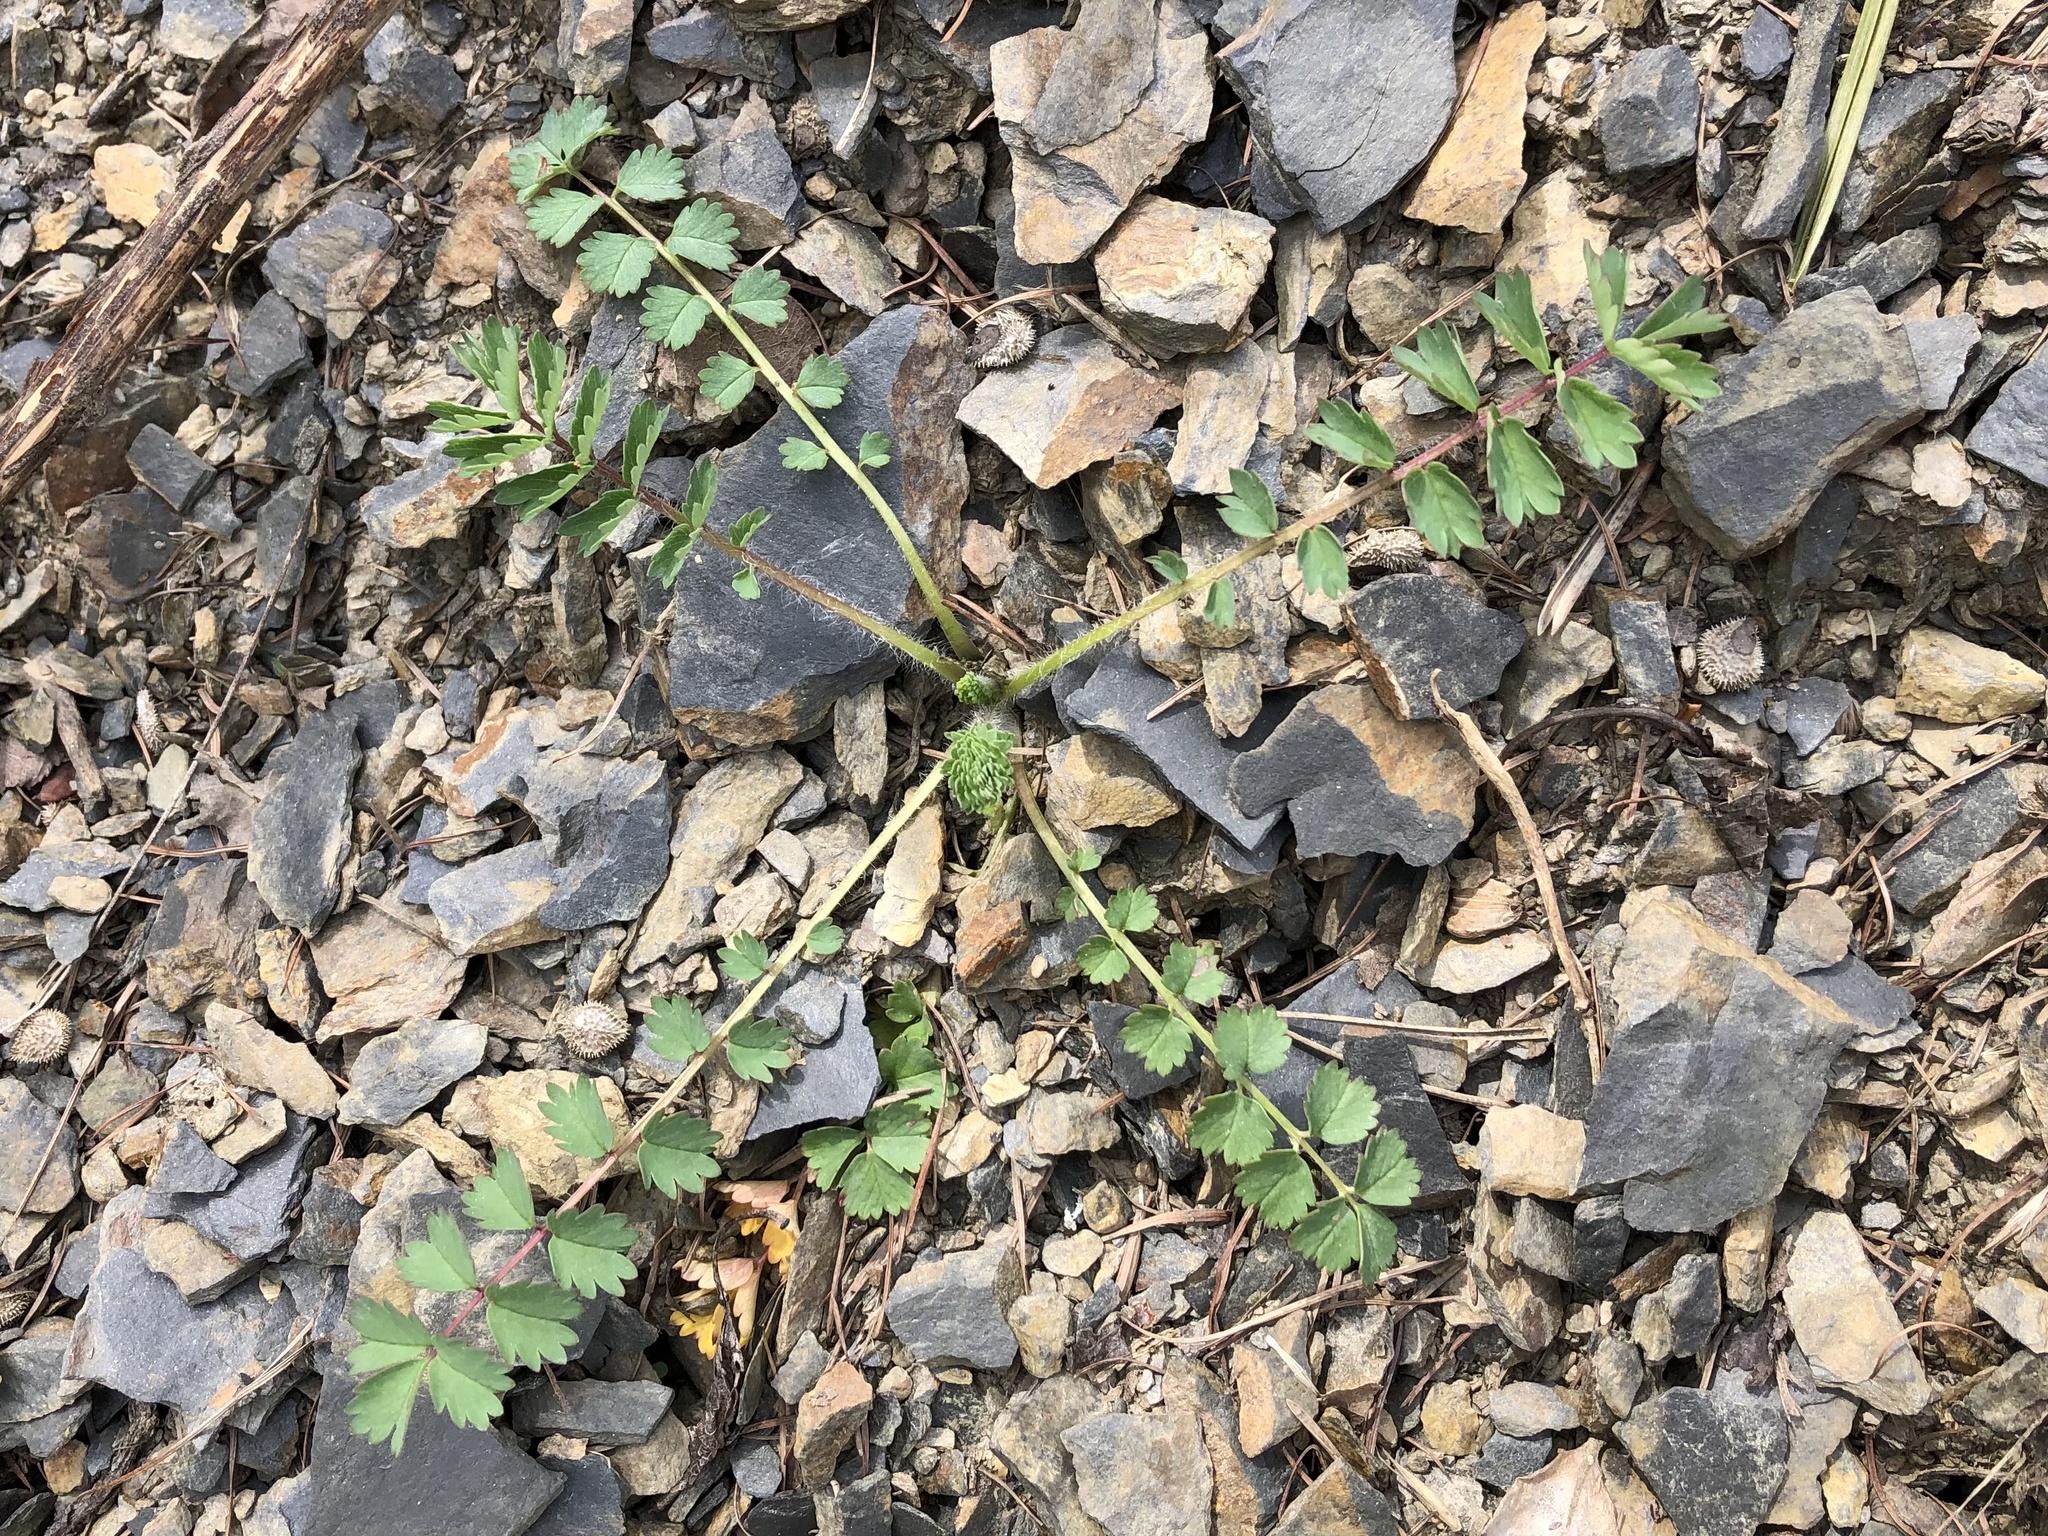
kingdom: Plantae
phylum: Tracheophyta
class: Magnoliopsida
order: Rosales
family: Rosaceae
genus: Poterium
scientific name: Poterium sanguisorba
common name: Salad burnet
